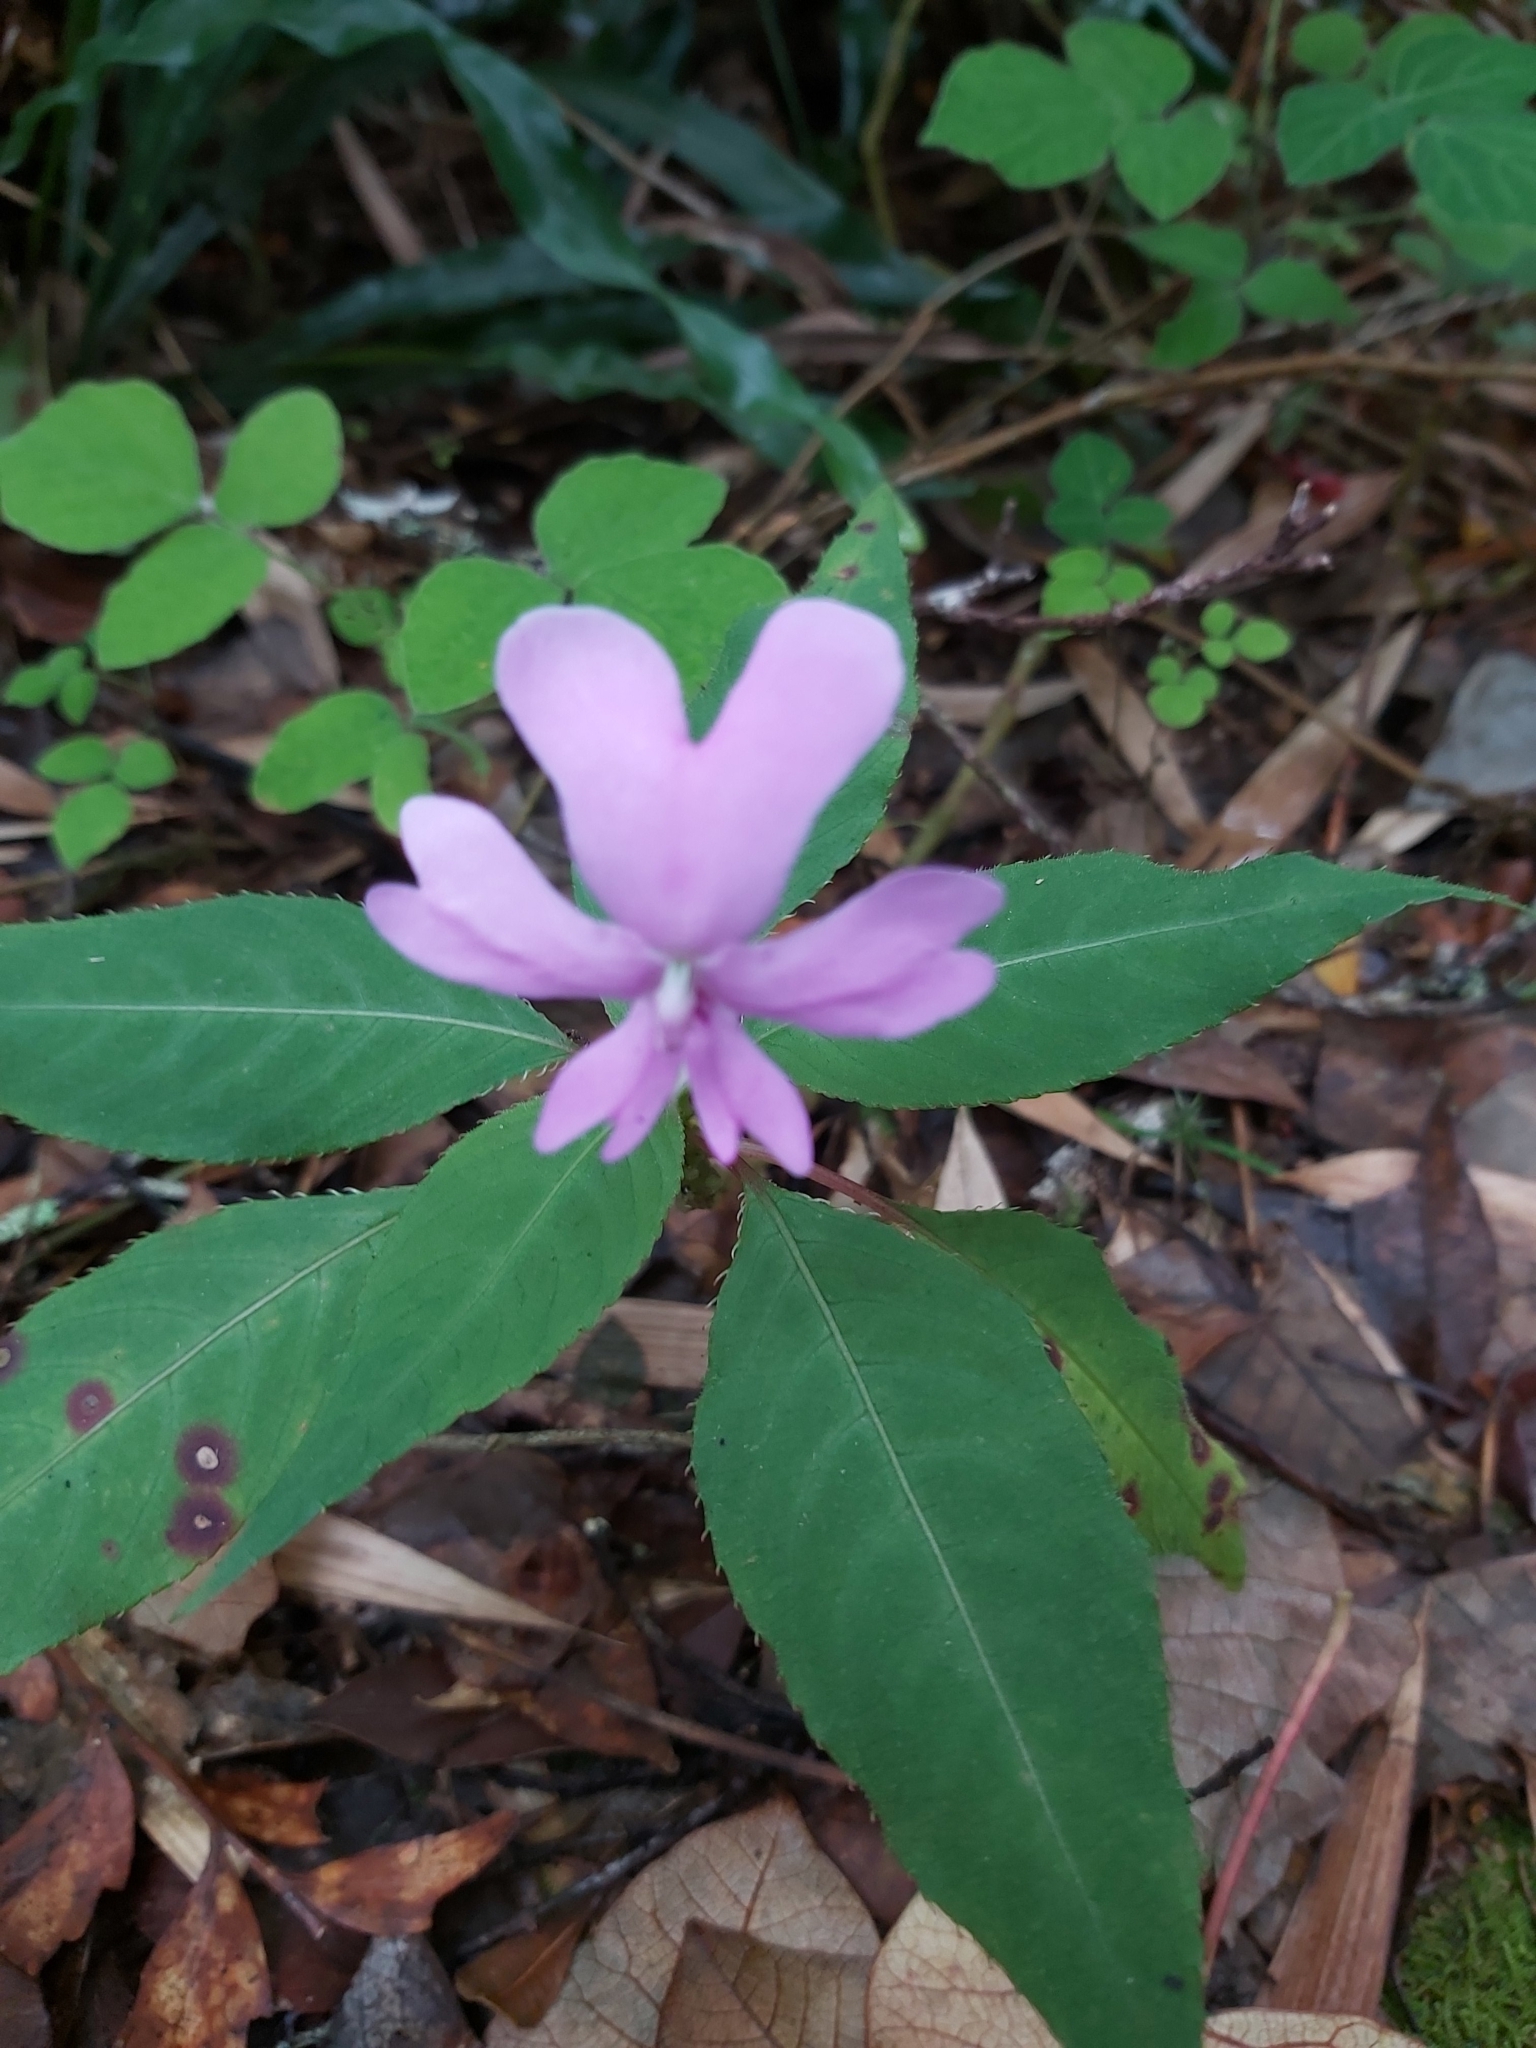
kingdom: Plantae
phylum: Tracheophyta
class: Magnoliopsida
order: Ericales
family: Balsaminaceae
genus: Impatiens
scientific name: Impatiens kinabaluensis
